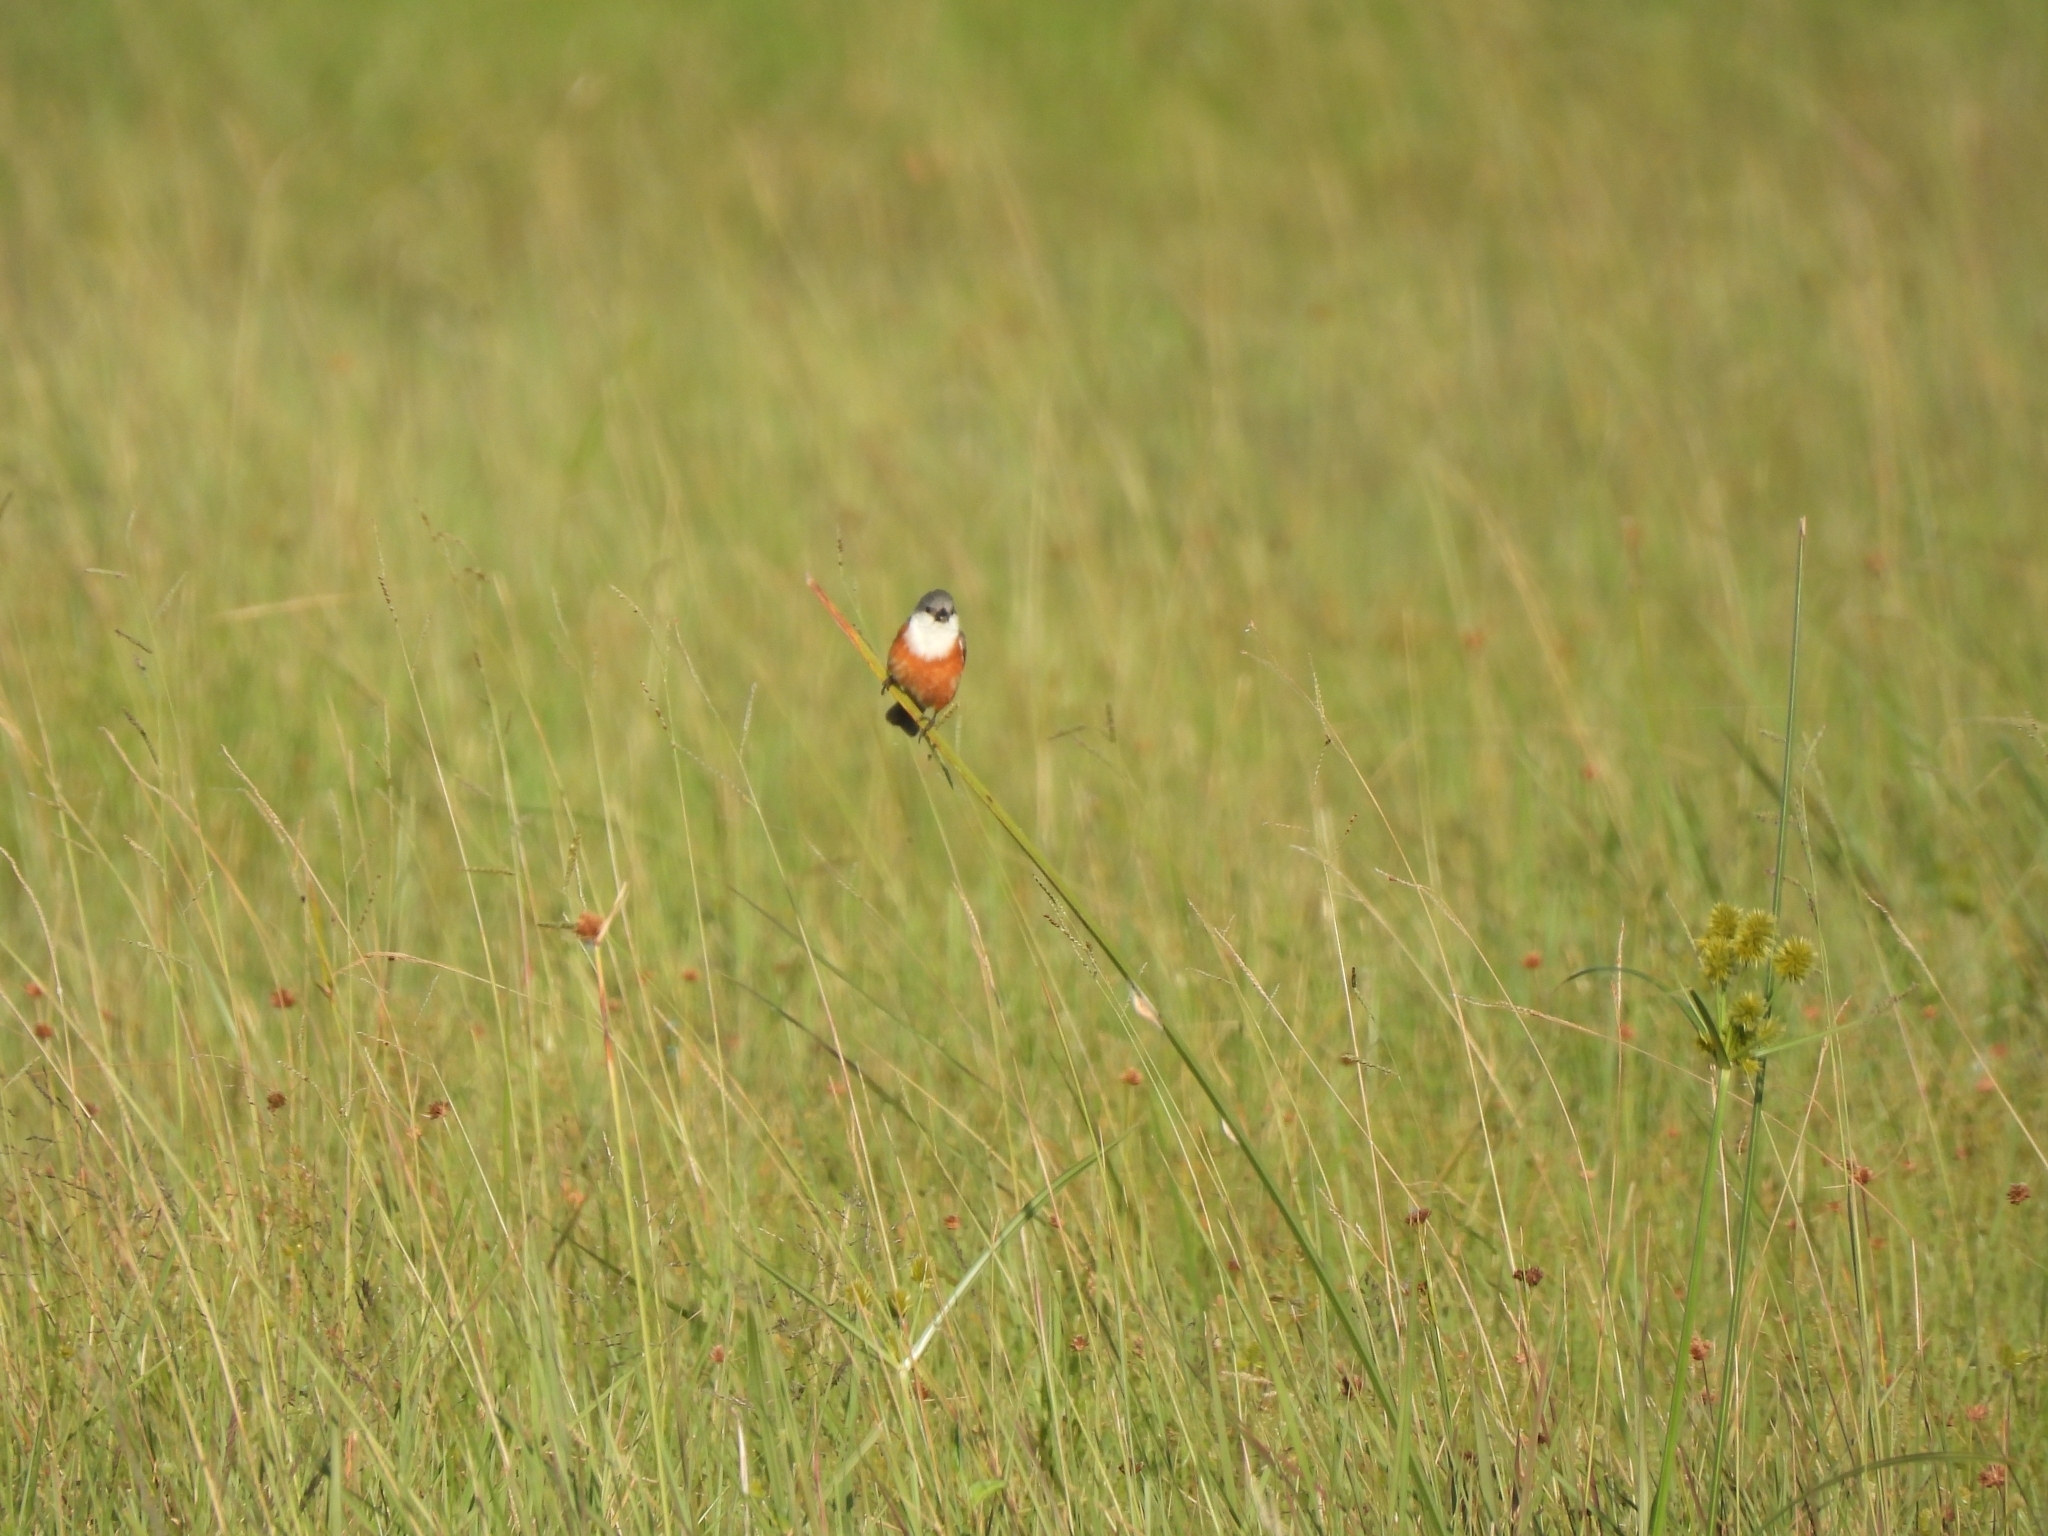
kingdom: Animalia
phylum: Chordata
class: Aves
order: Passeriformes
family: Thraupidae
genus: Sporophila
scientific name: Sporophila palustris
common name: Marsh seedeater
